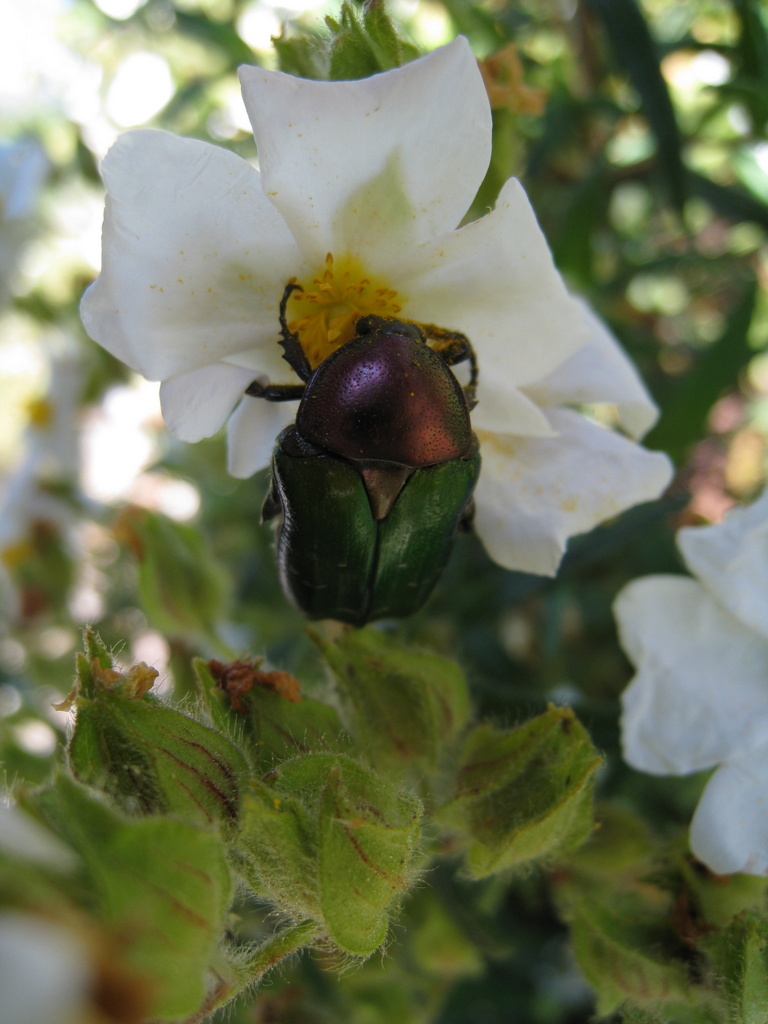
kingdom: Animalia
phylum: Arthropoda
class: Insecta
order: Coleoptera
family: Scarabaeidae
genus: Cetonia
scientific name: Cetonia aurata
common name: Rose chafer
